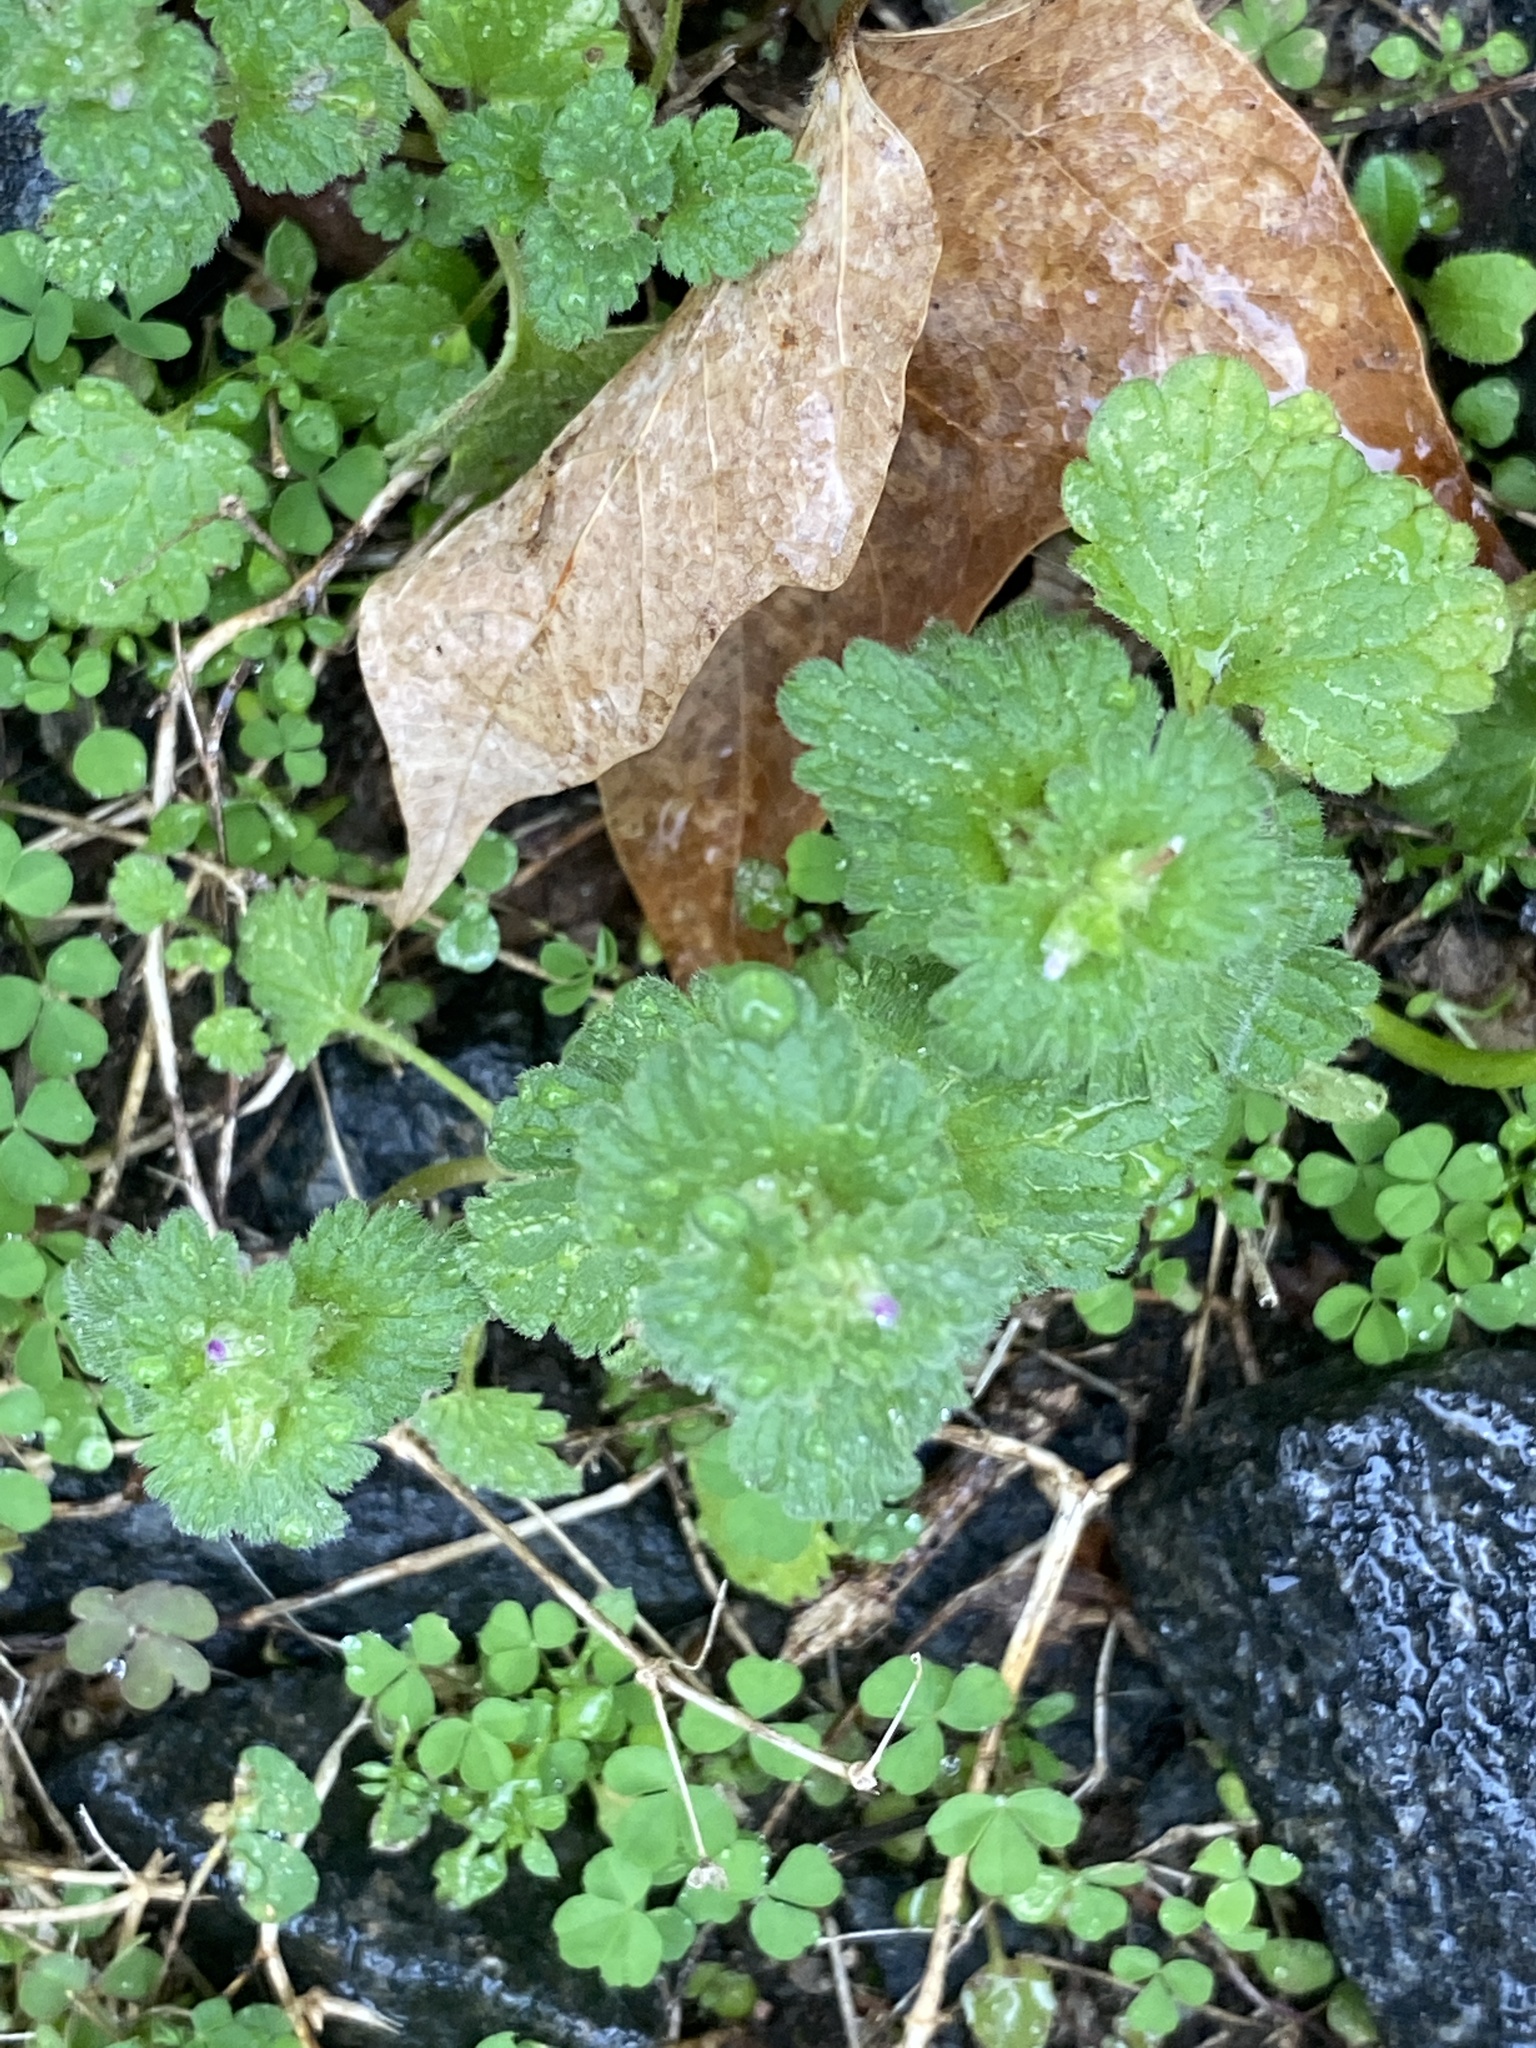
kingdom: Plantae
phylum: Tracheophyta
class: Magnoliopsida
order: Lamiales
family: Lamiaceae
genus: Lamium
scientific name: Lamium amplexicaule
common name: Henbit dead-nettle
